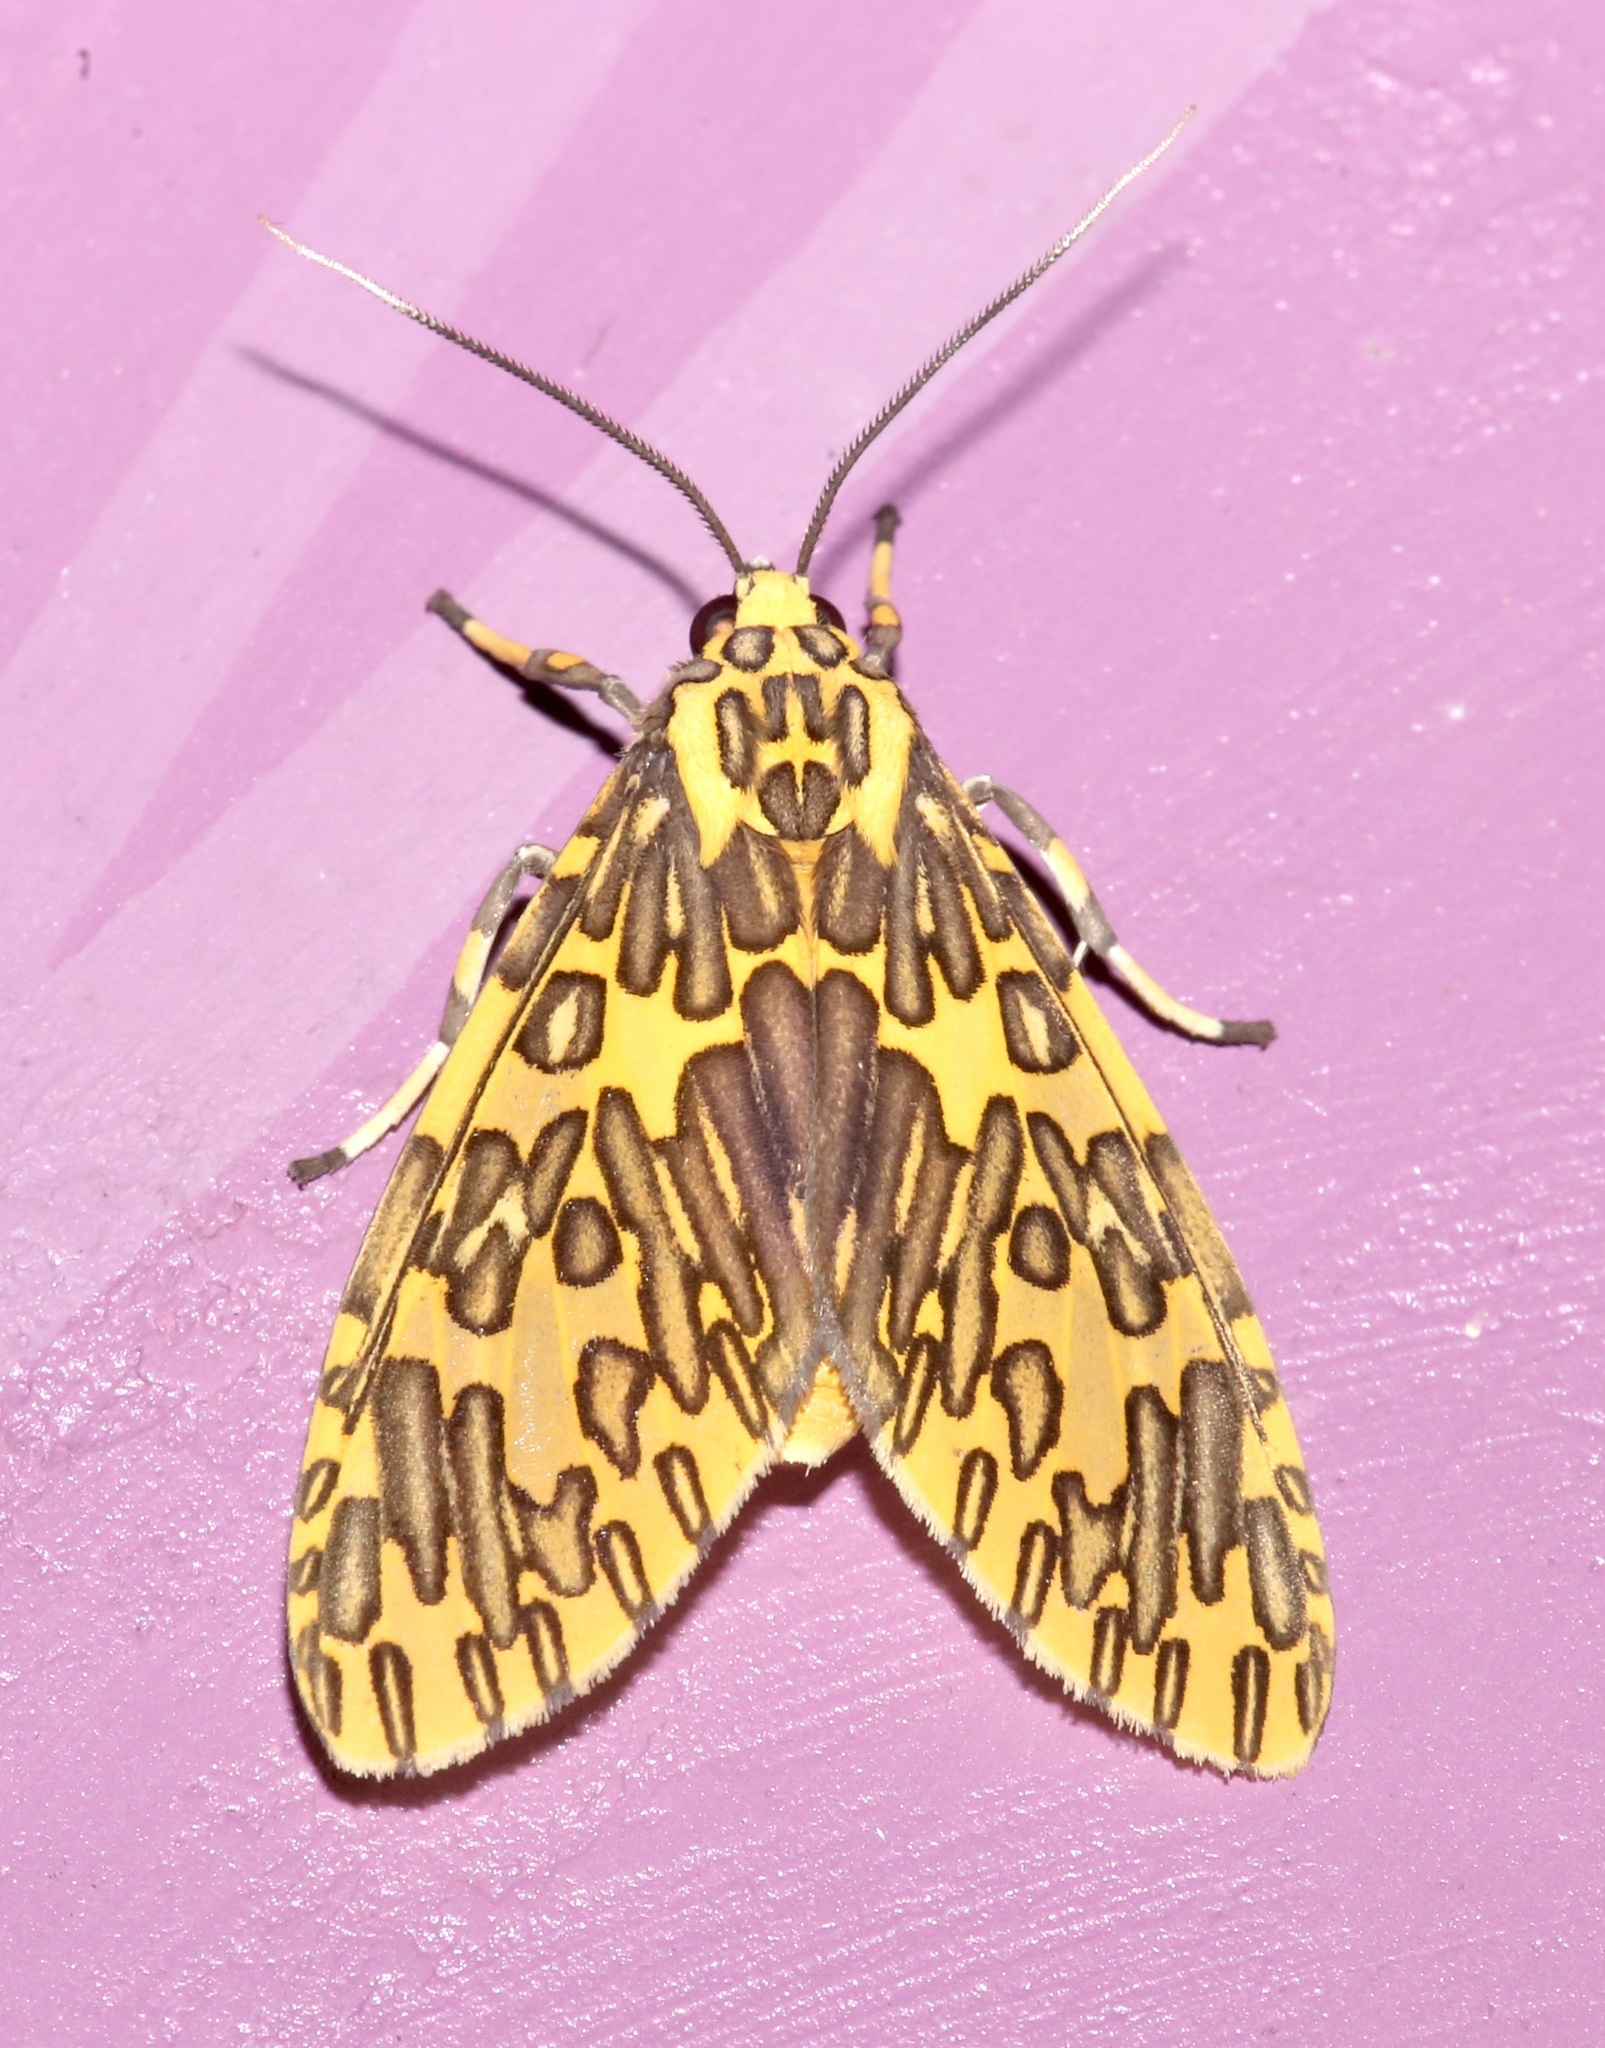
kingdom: Animalia
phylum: Arthropoda
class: Insecta
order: Lepidoptera
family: Erebidae
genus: Amaxia
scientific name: Amaxia pandama
